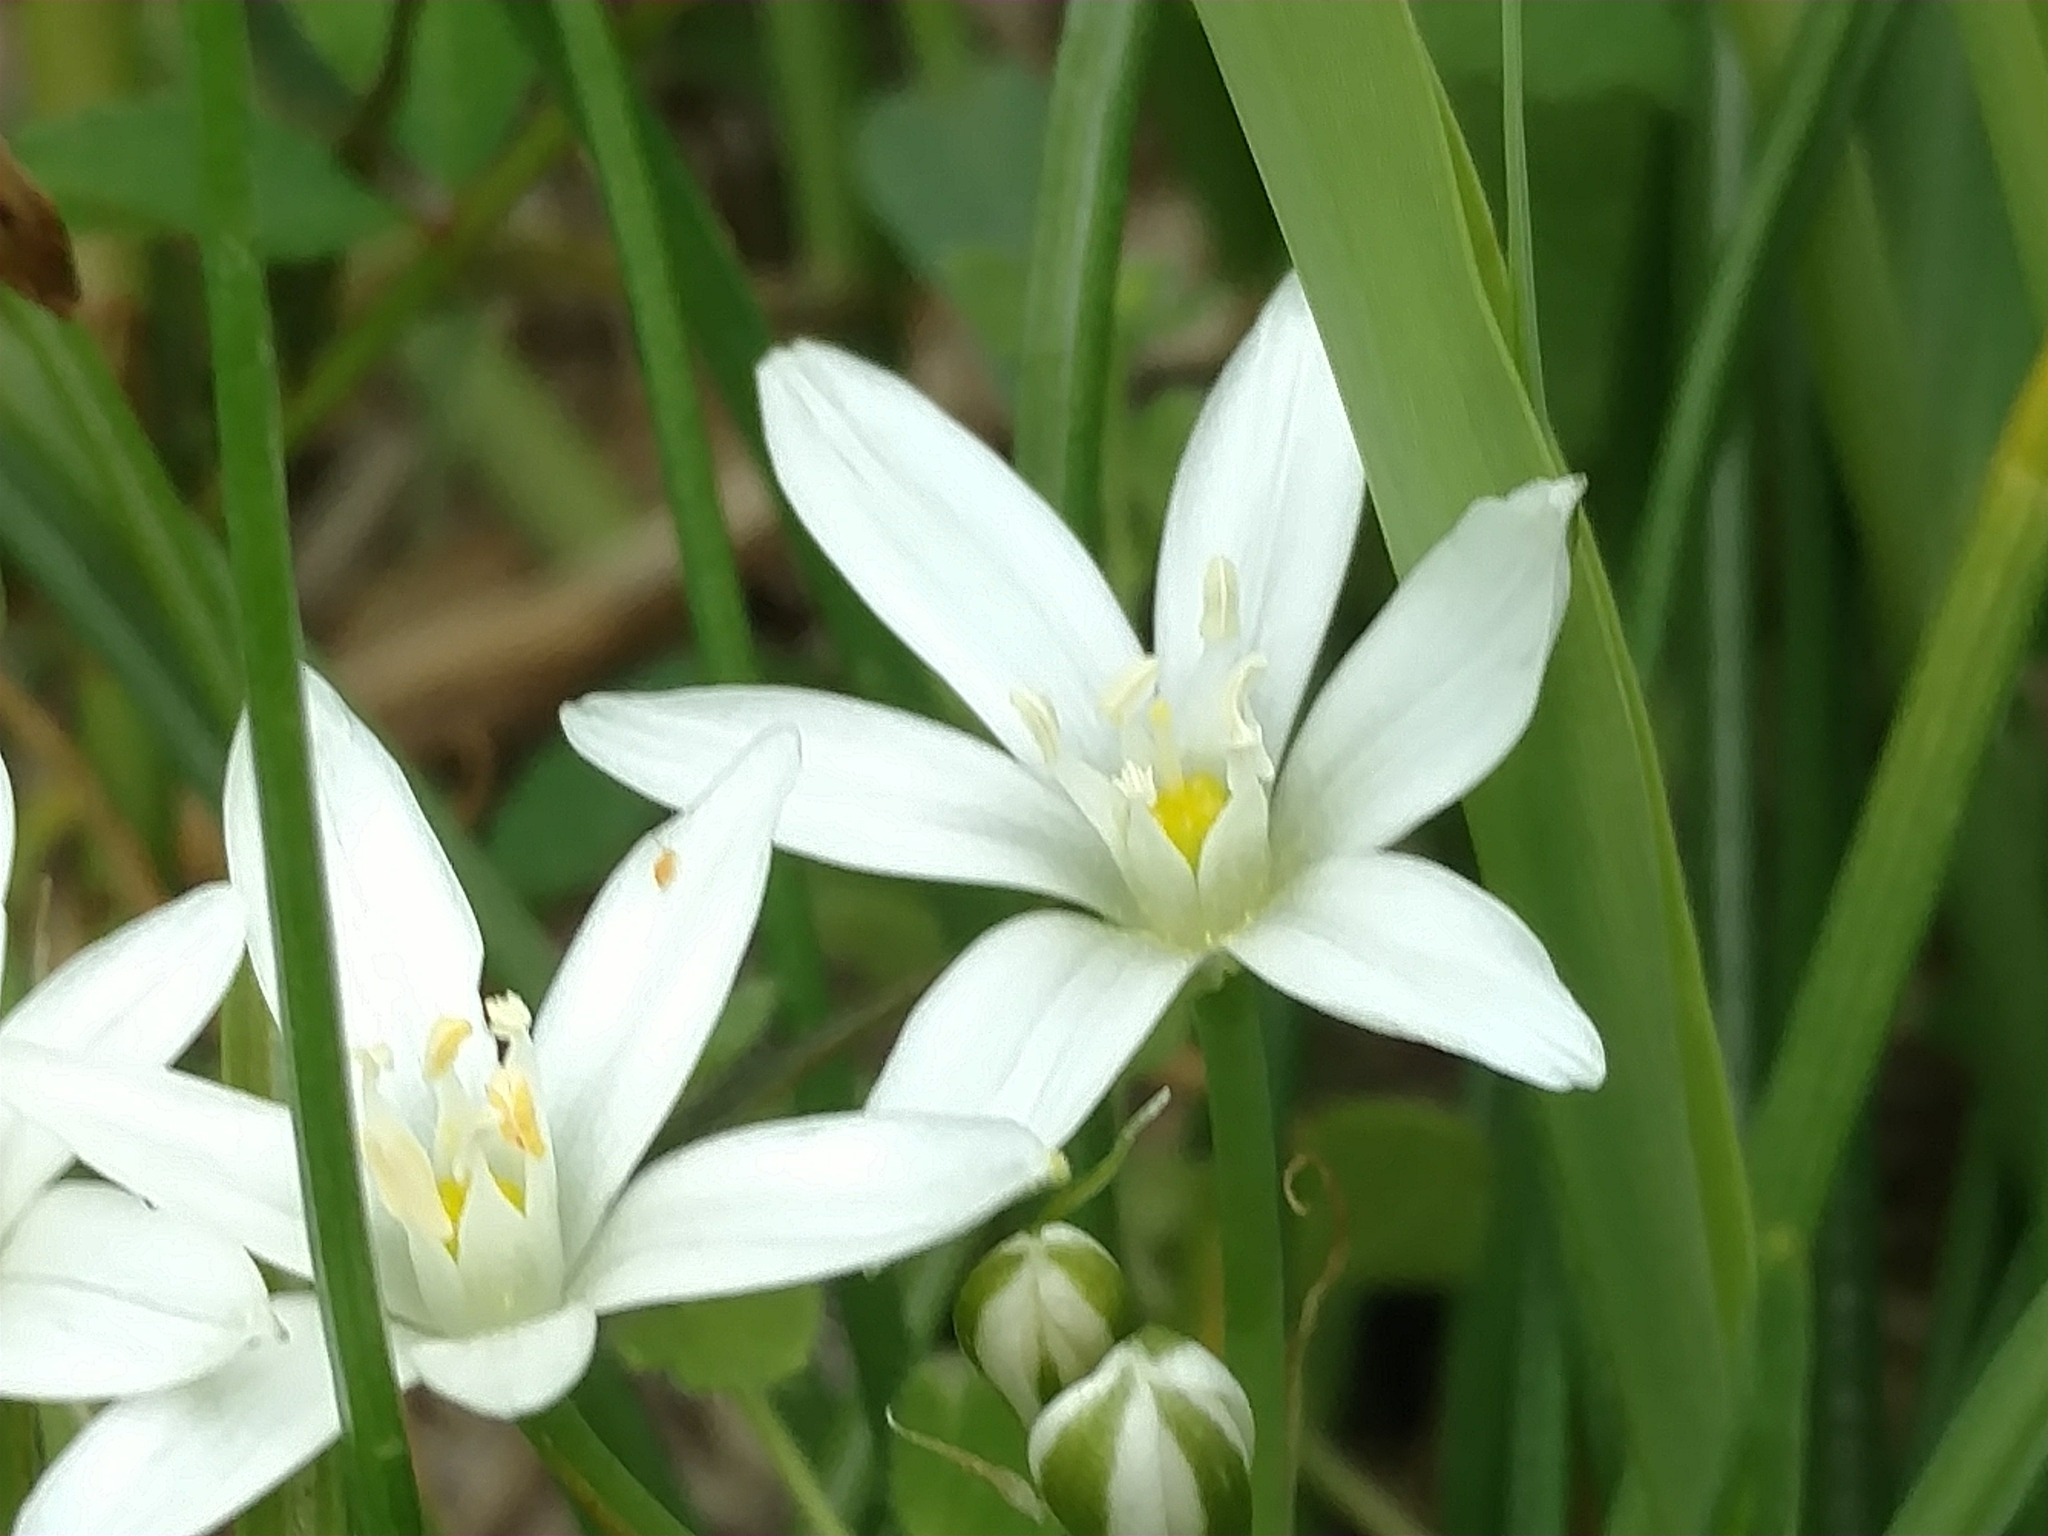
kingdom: Plantae
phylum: Tracheophyta
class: Liliopsida
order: Asparagales
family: Asparagaceae
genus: Ornithogalum
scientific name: Ornithogalum umbellatum
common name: Garden star-of-bethlehem
